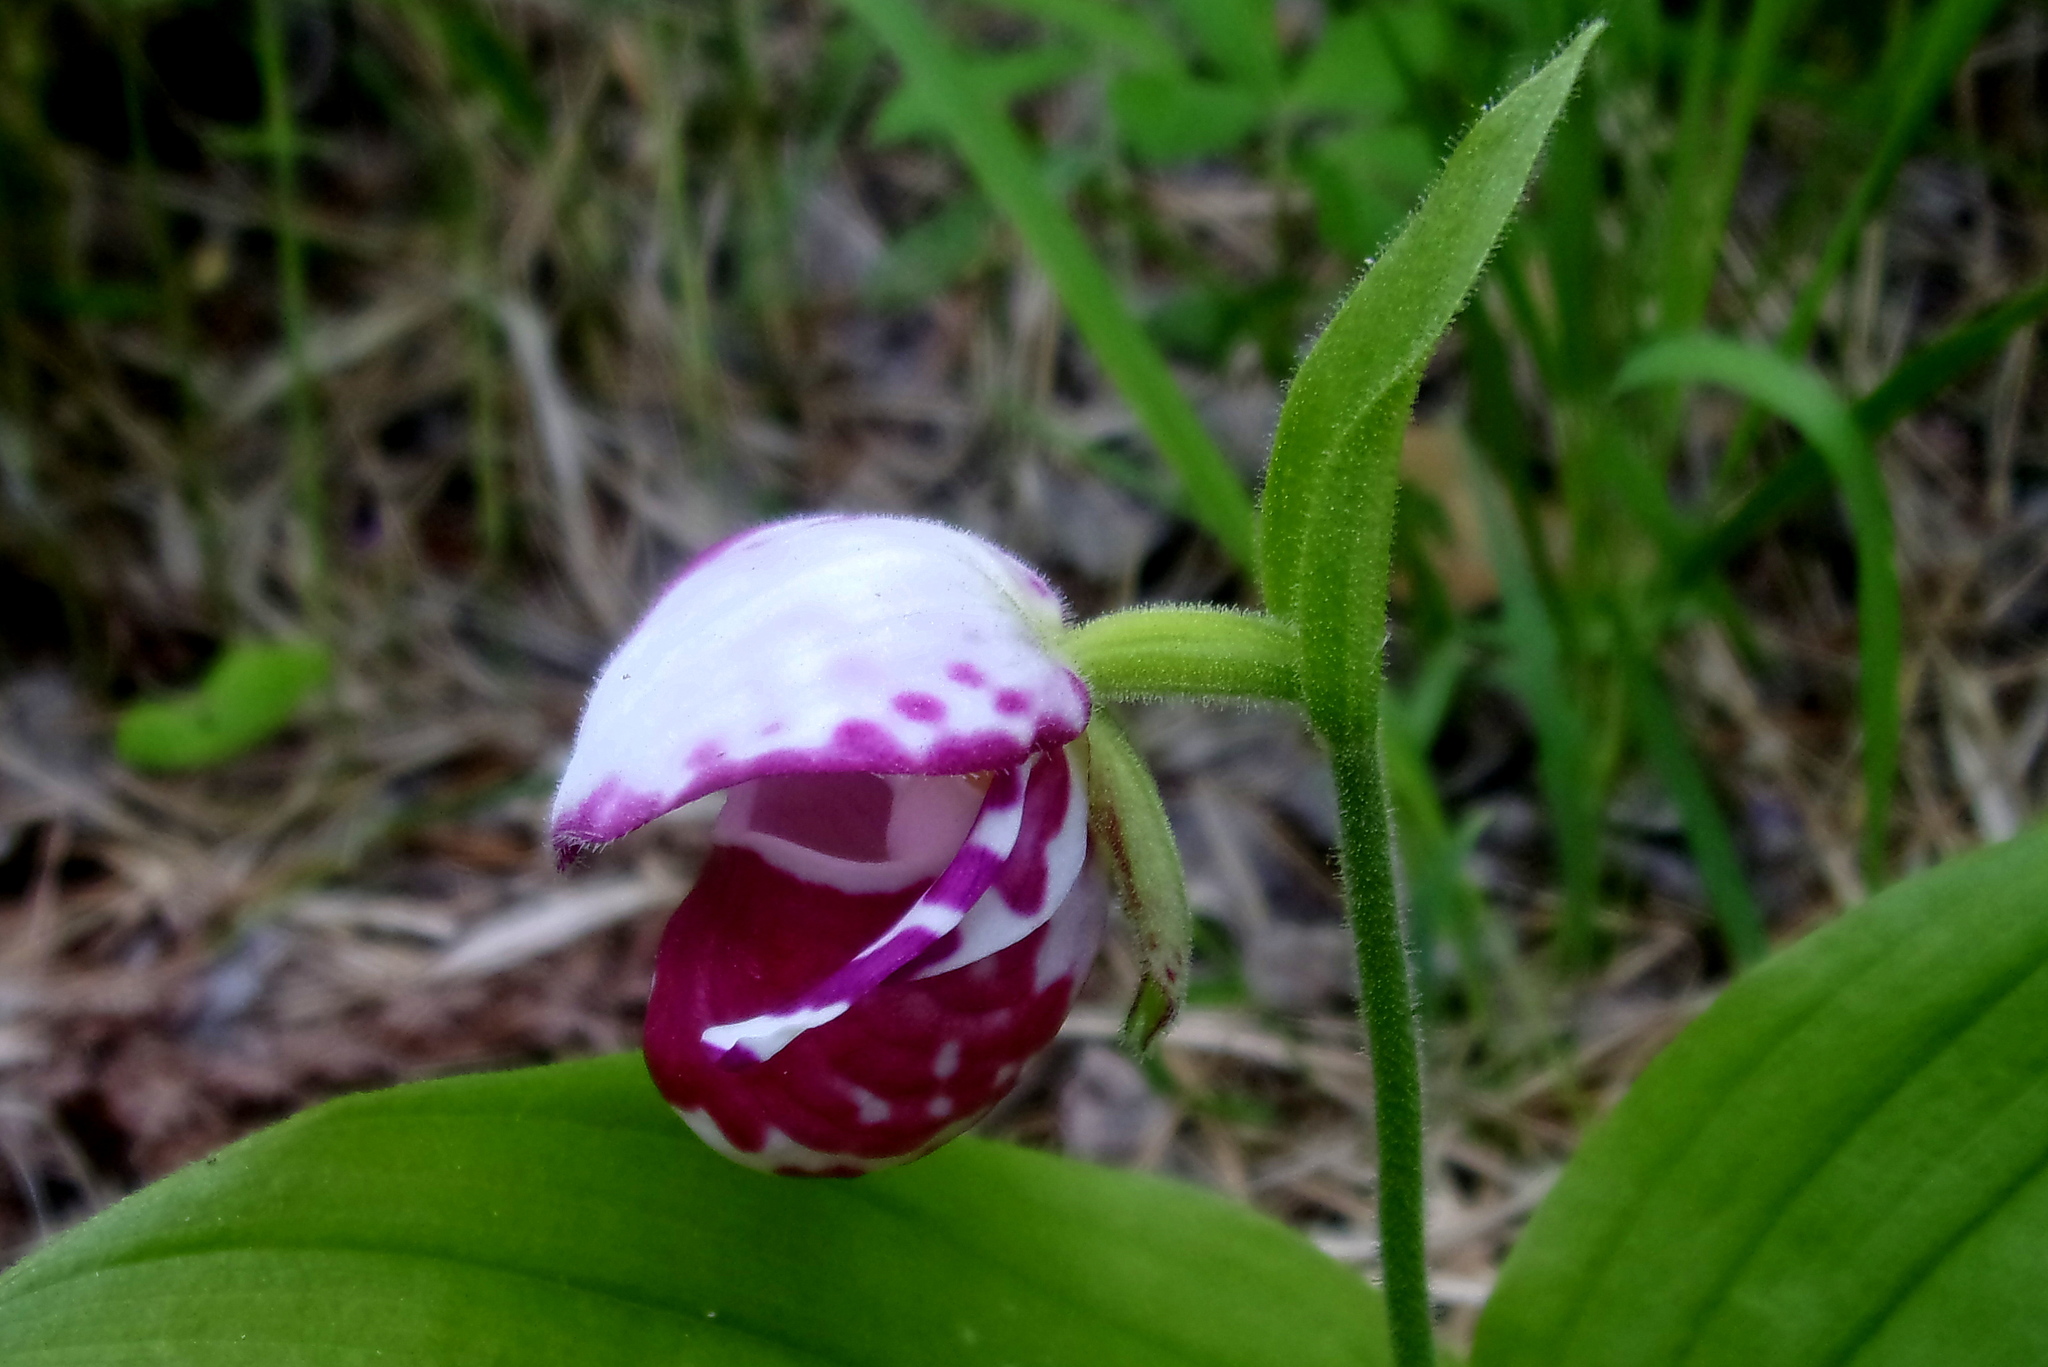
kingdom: Plantae
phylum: Tracheophyta
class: Liliopsida
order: Asparagales
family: Orchidaceae
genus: Cypripedium
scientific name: Cypripedium guttatum
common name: Pink lady slipper
